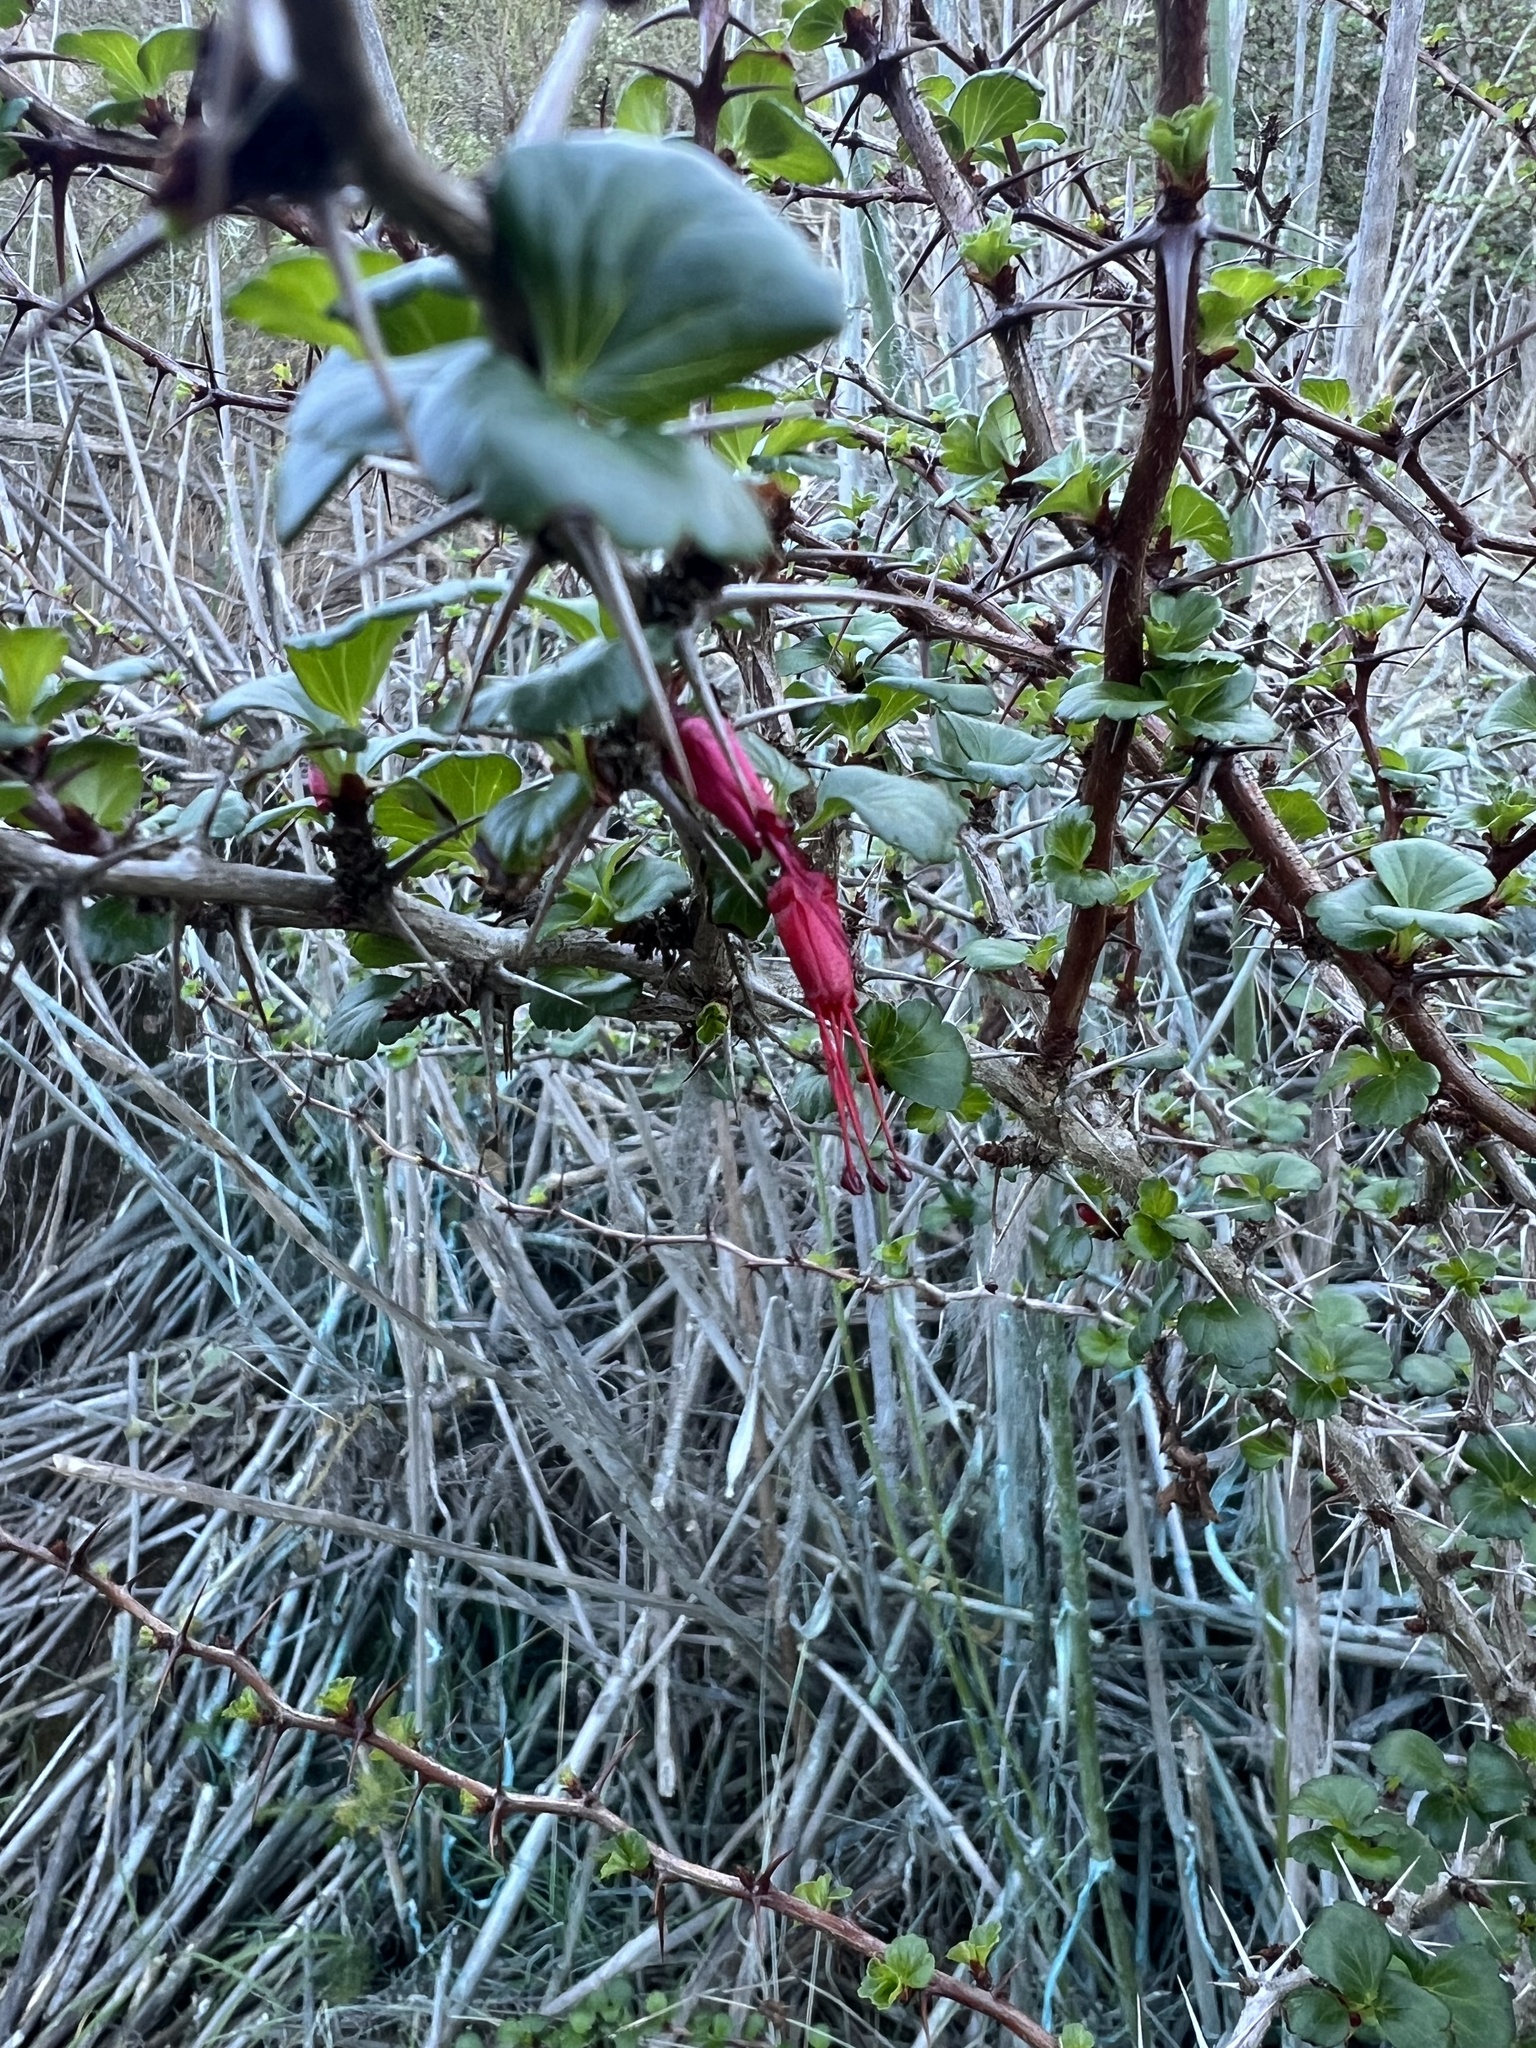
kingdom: Plantae
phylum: Tracheophyta
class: Magnoliopsida
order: Saxifragales
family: Grossulariaceae
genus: Ribes
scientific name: Ribes speciosum
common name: Fuchsia-flower gooseberry
